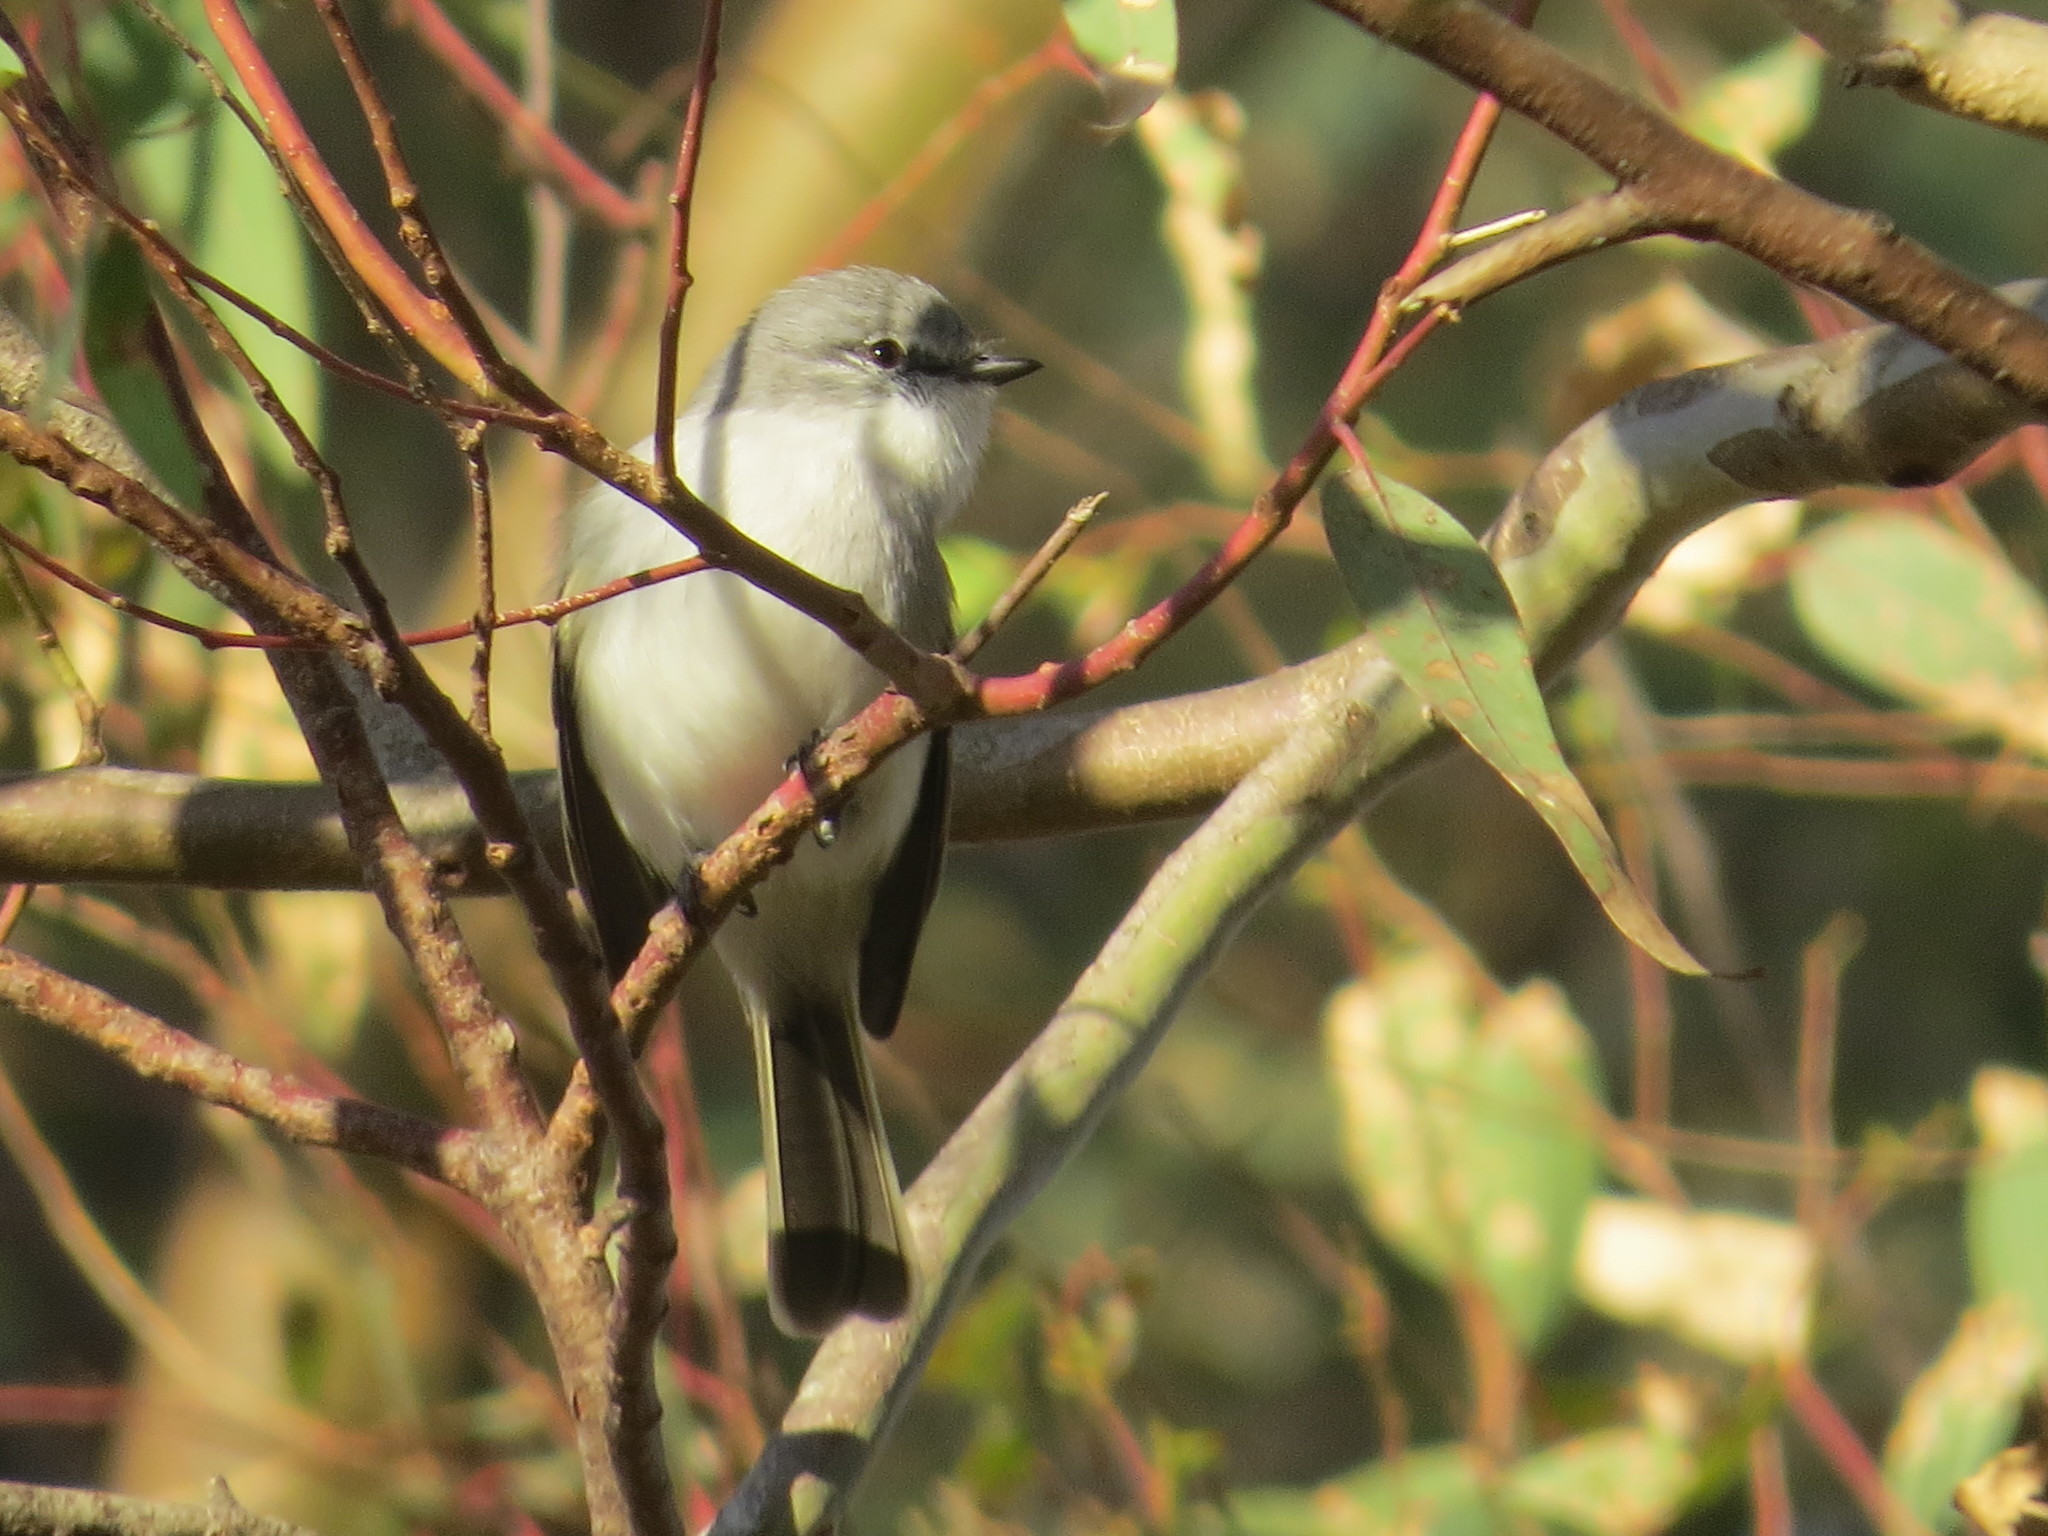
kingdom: Animalia
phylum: Chordata
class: Aves
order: Passeriformes
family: Tyrannidae
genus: Suiriri
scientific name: Suiriri suiriri
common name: Suiriri flycatcher
